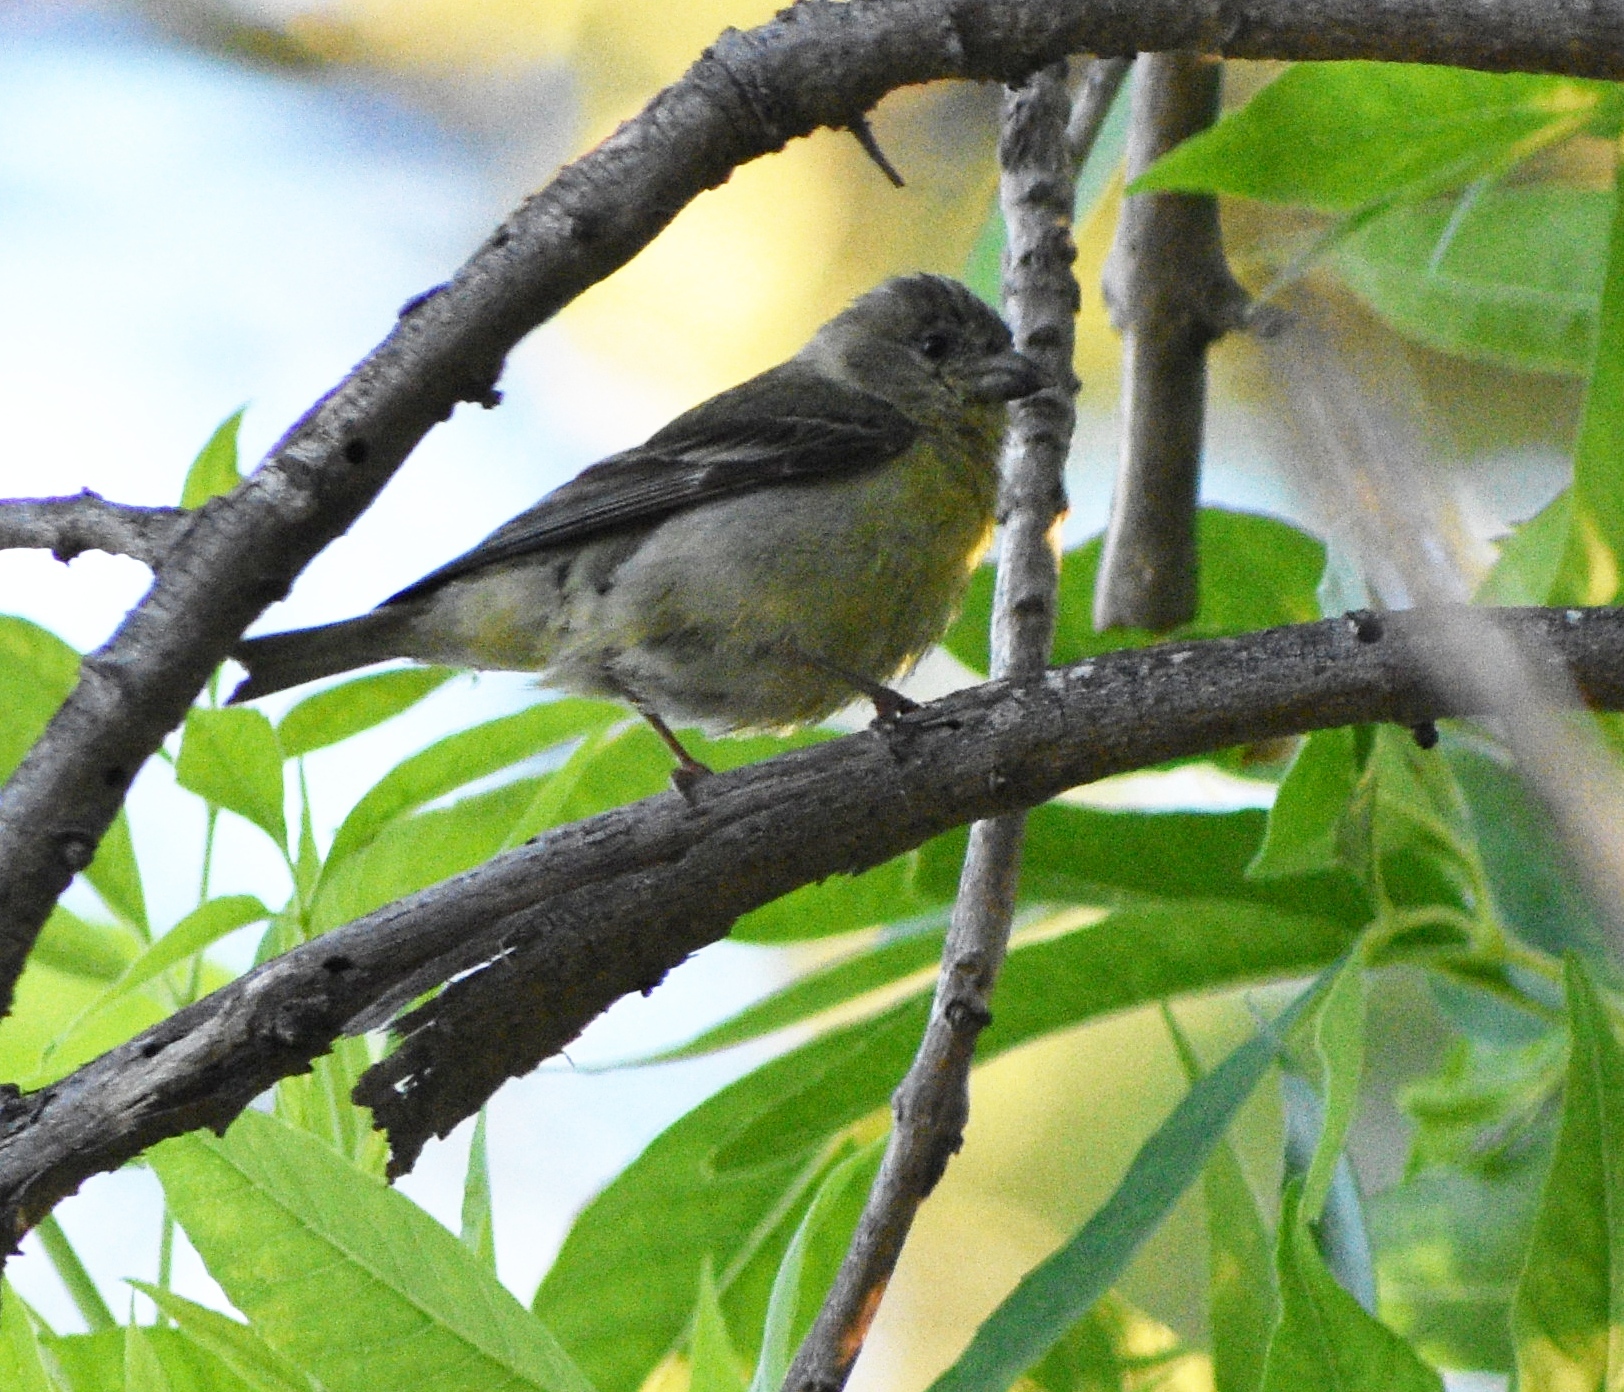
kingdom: Animalia
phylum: Chordata
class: Aves
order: Passeriformes
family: Fringillidae
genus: Spinus
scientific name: Spinus psaltria
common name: Lesser goldfinch
